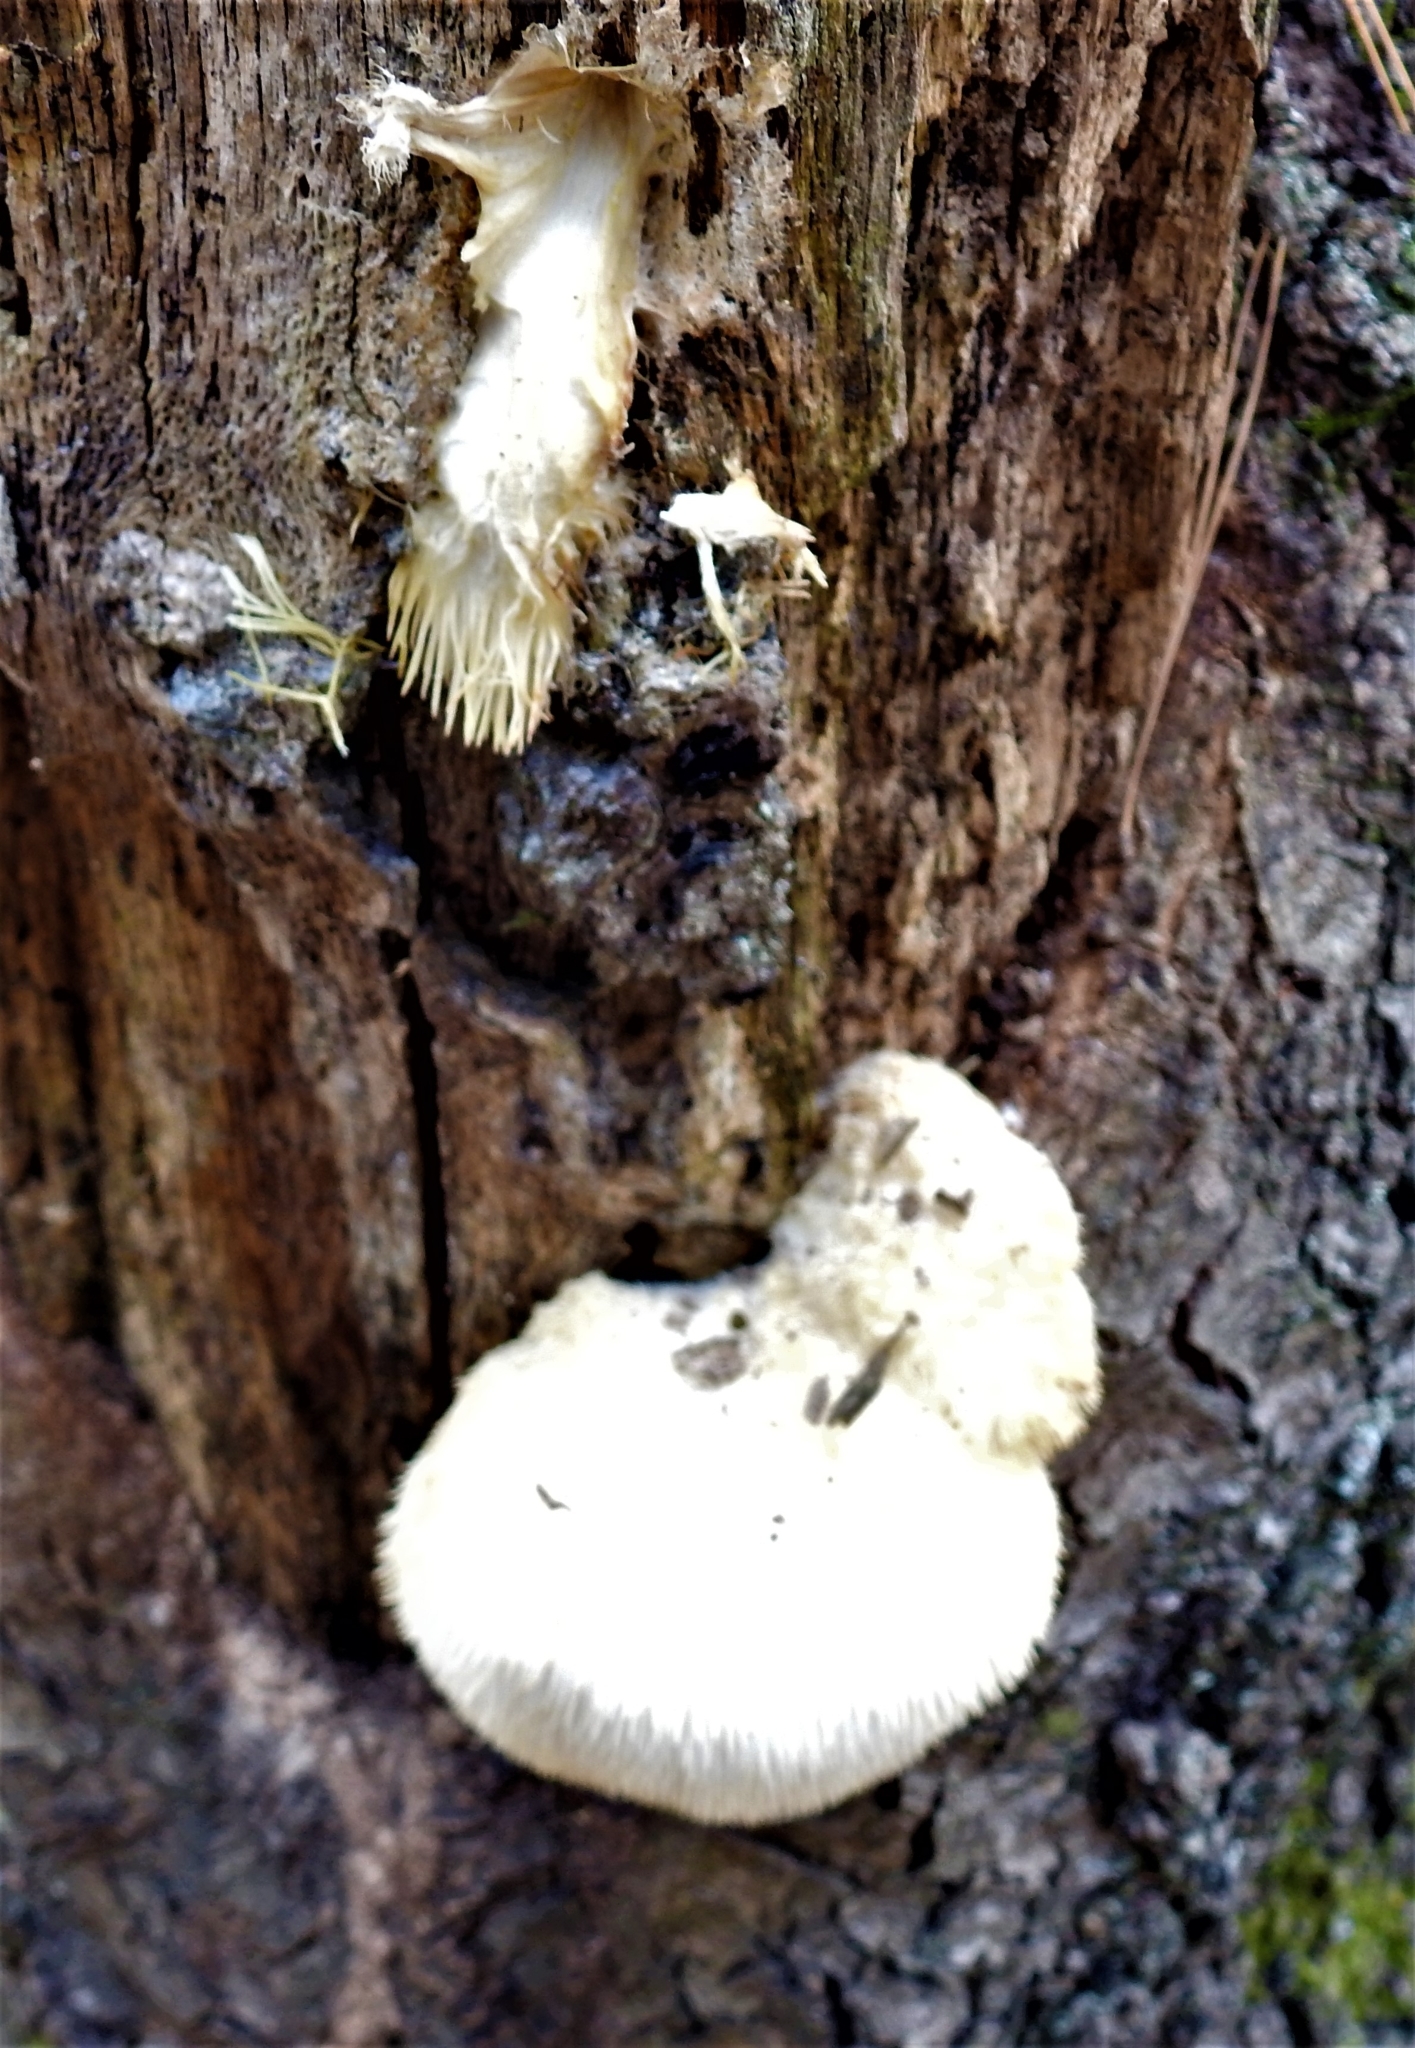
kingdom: Fungi
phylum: Basidiomycota
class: Agaricomycetes
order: Russulales
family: Hericiaceae
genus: Hericium
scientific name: Hericium erinaceus
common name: Bearded tooth
